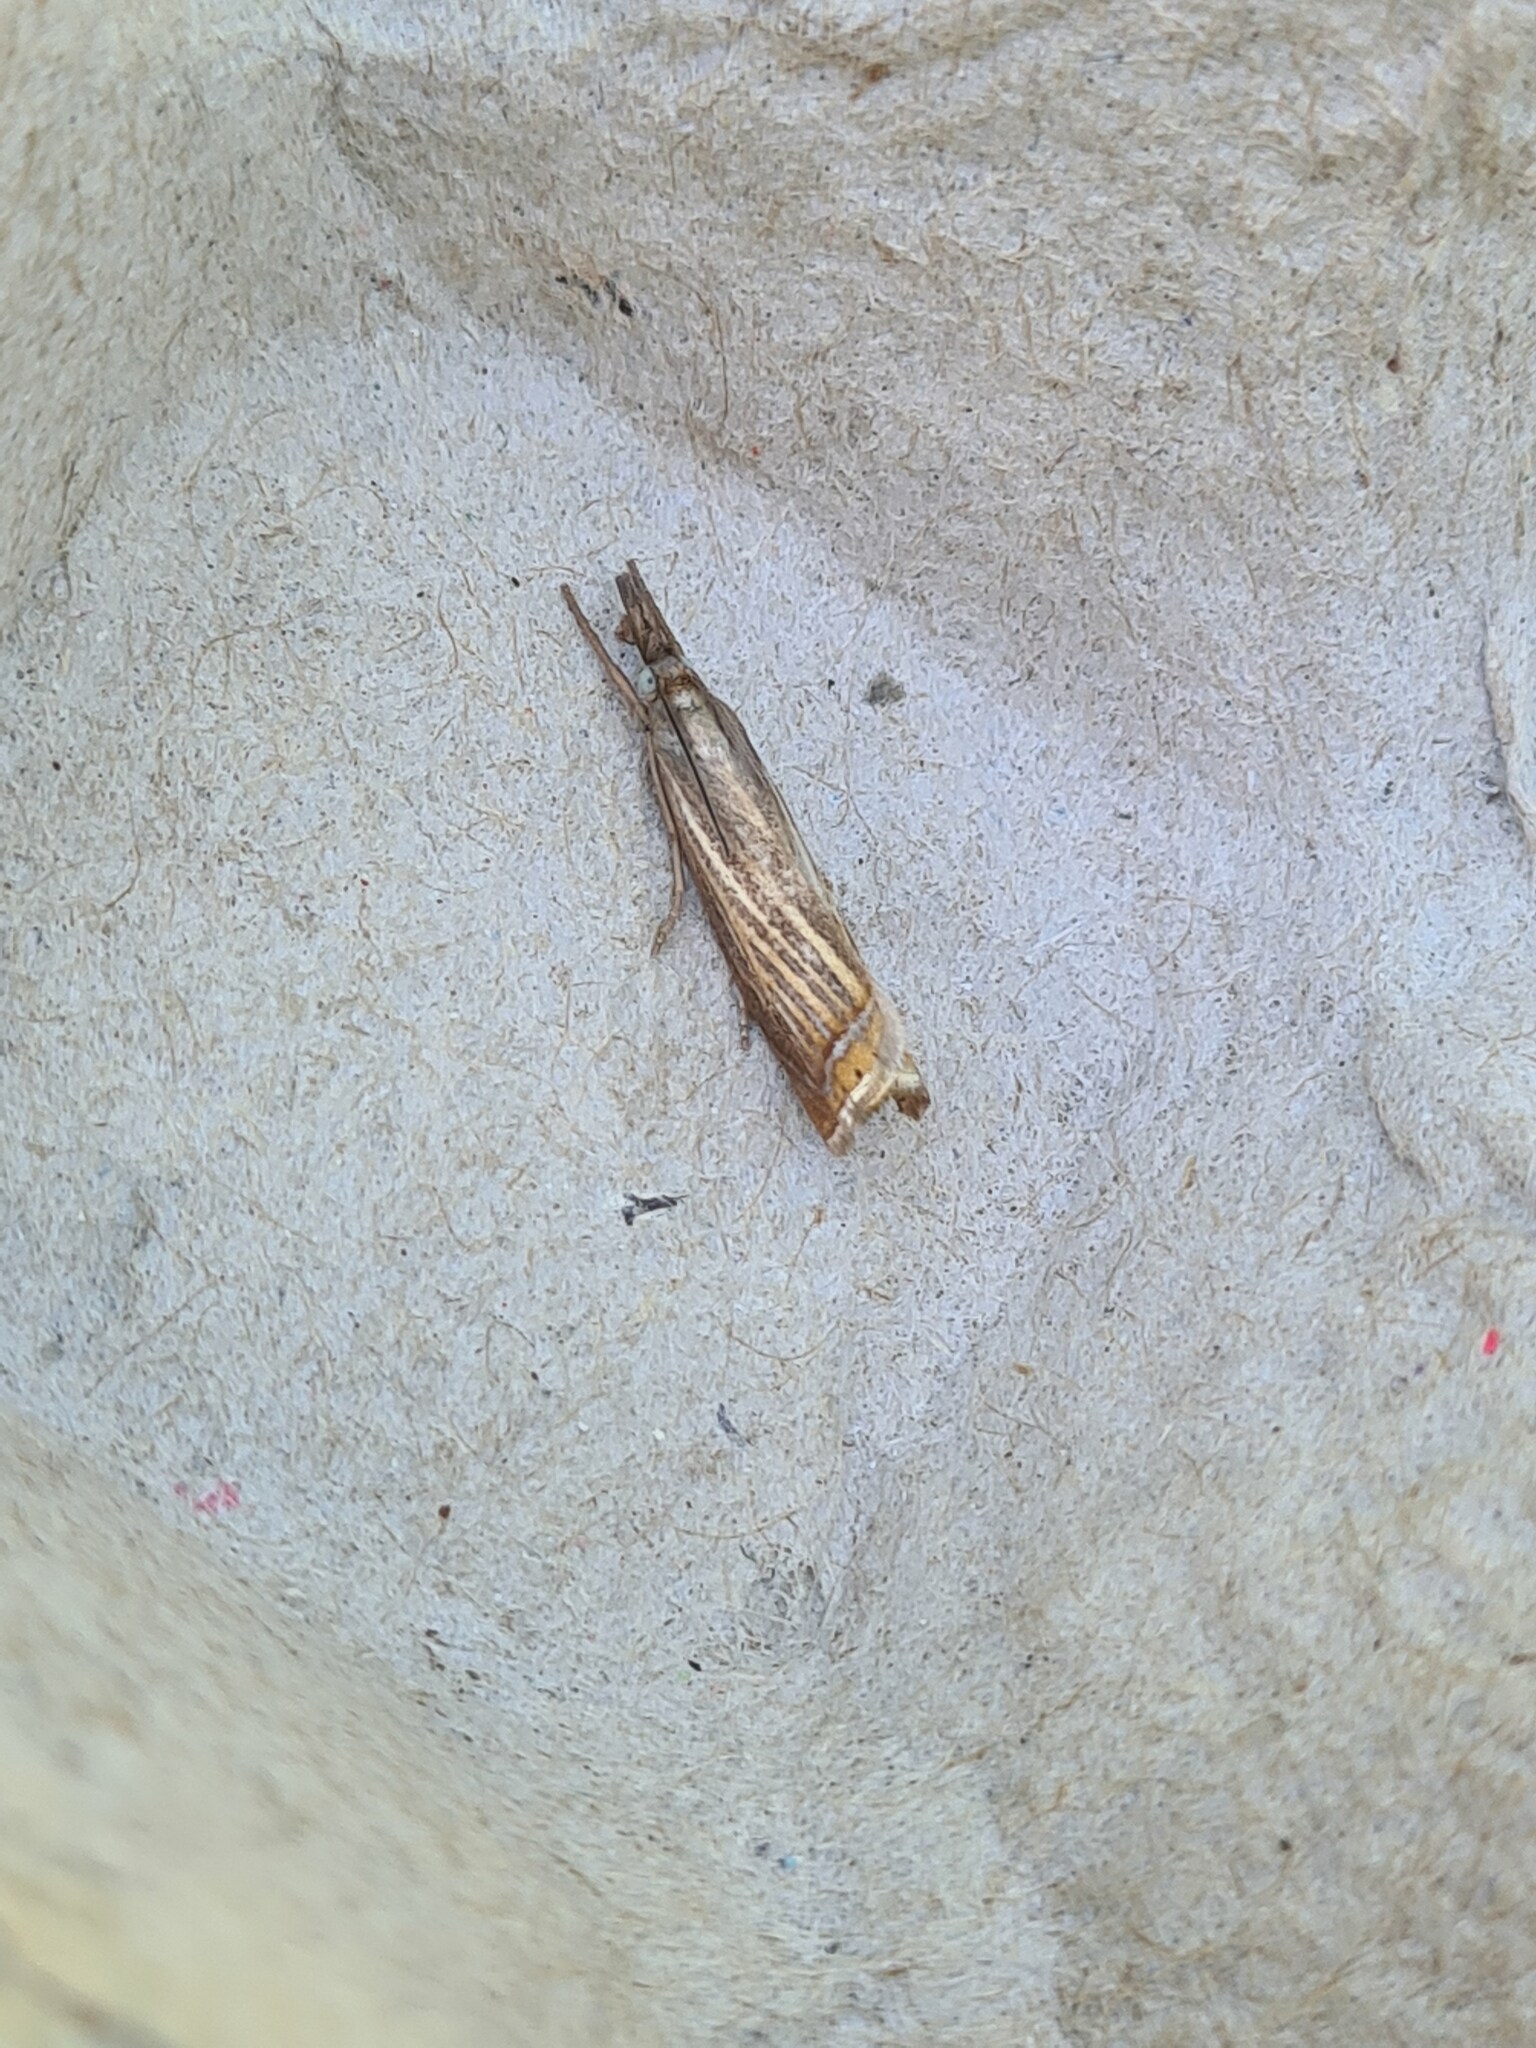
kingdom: Animalia
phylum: Arthropoda
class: Insecta
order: Lepidoptera
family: Crambidae
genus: Chrysoteuchia
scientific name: Chrysoteuchia culmella
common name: Garden grass-veneer
